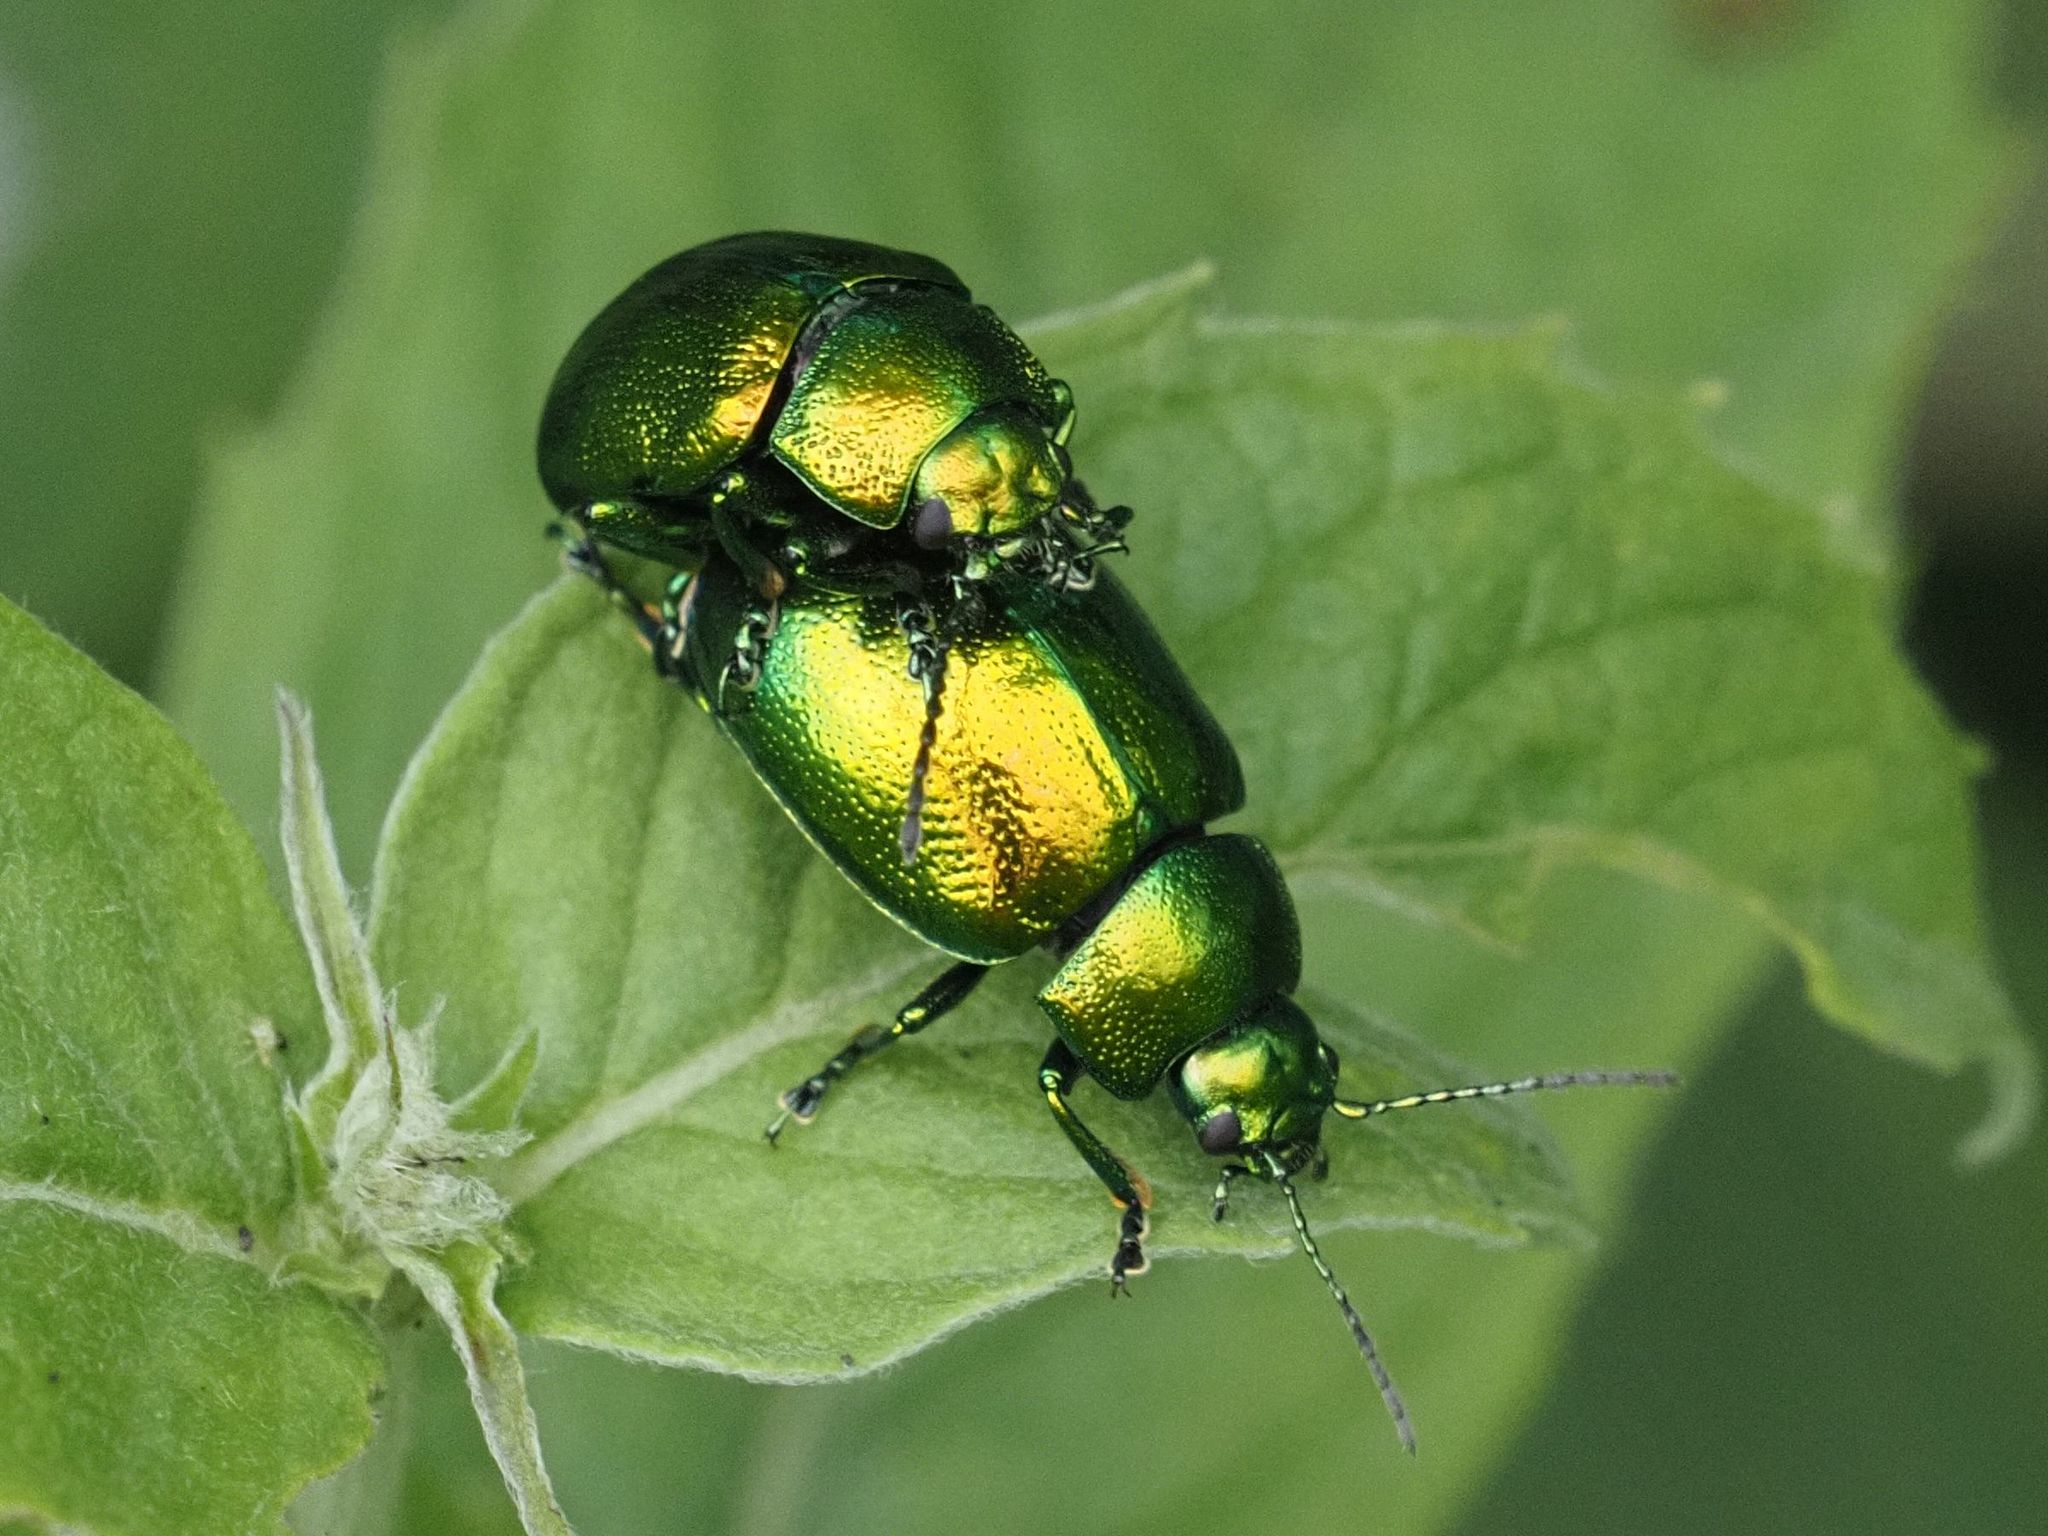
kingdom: Animalia
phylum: Arthropoda
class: Insecta
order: Coleoptera
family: Chrysomelidae
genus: Chrysolina
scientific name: Chrysolina herbacea
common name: Mint leaf beatle
